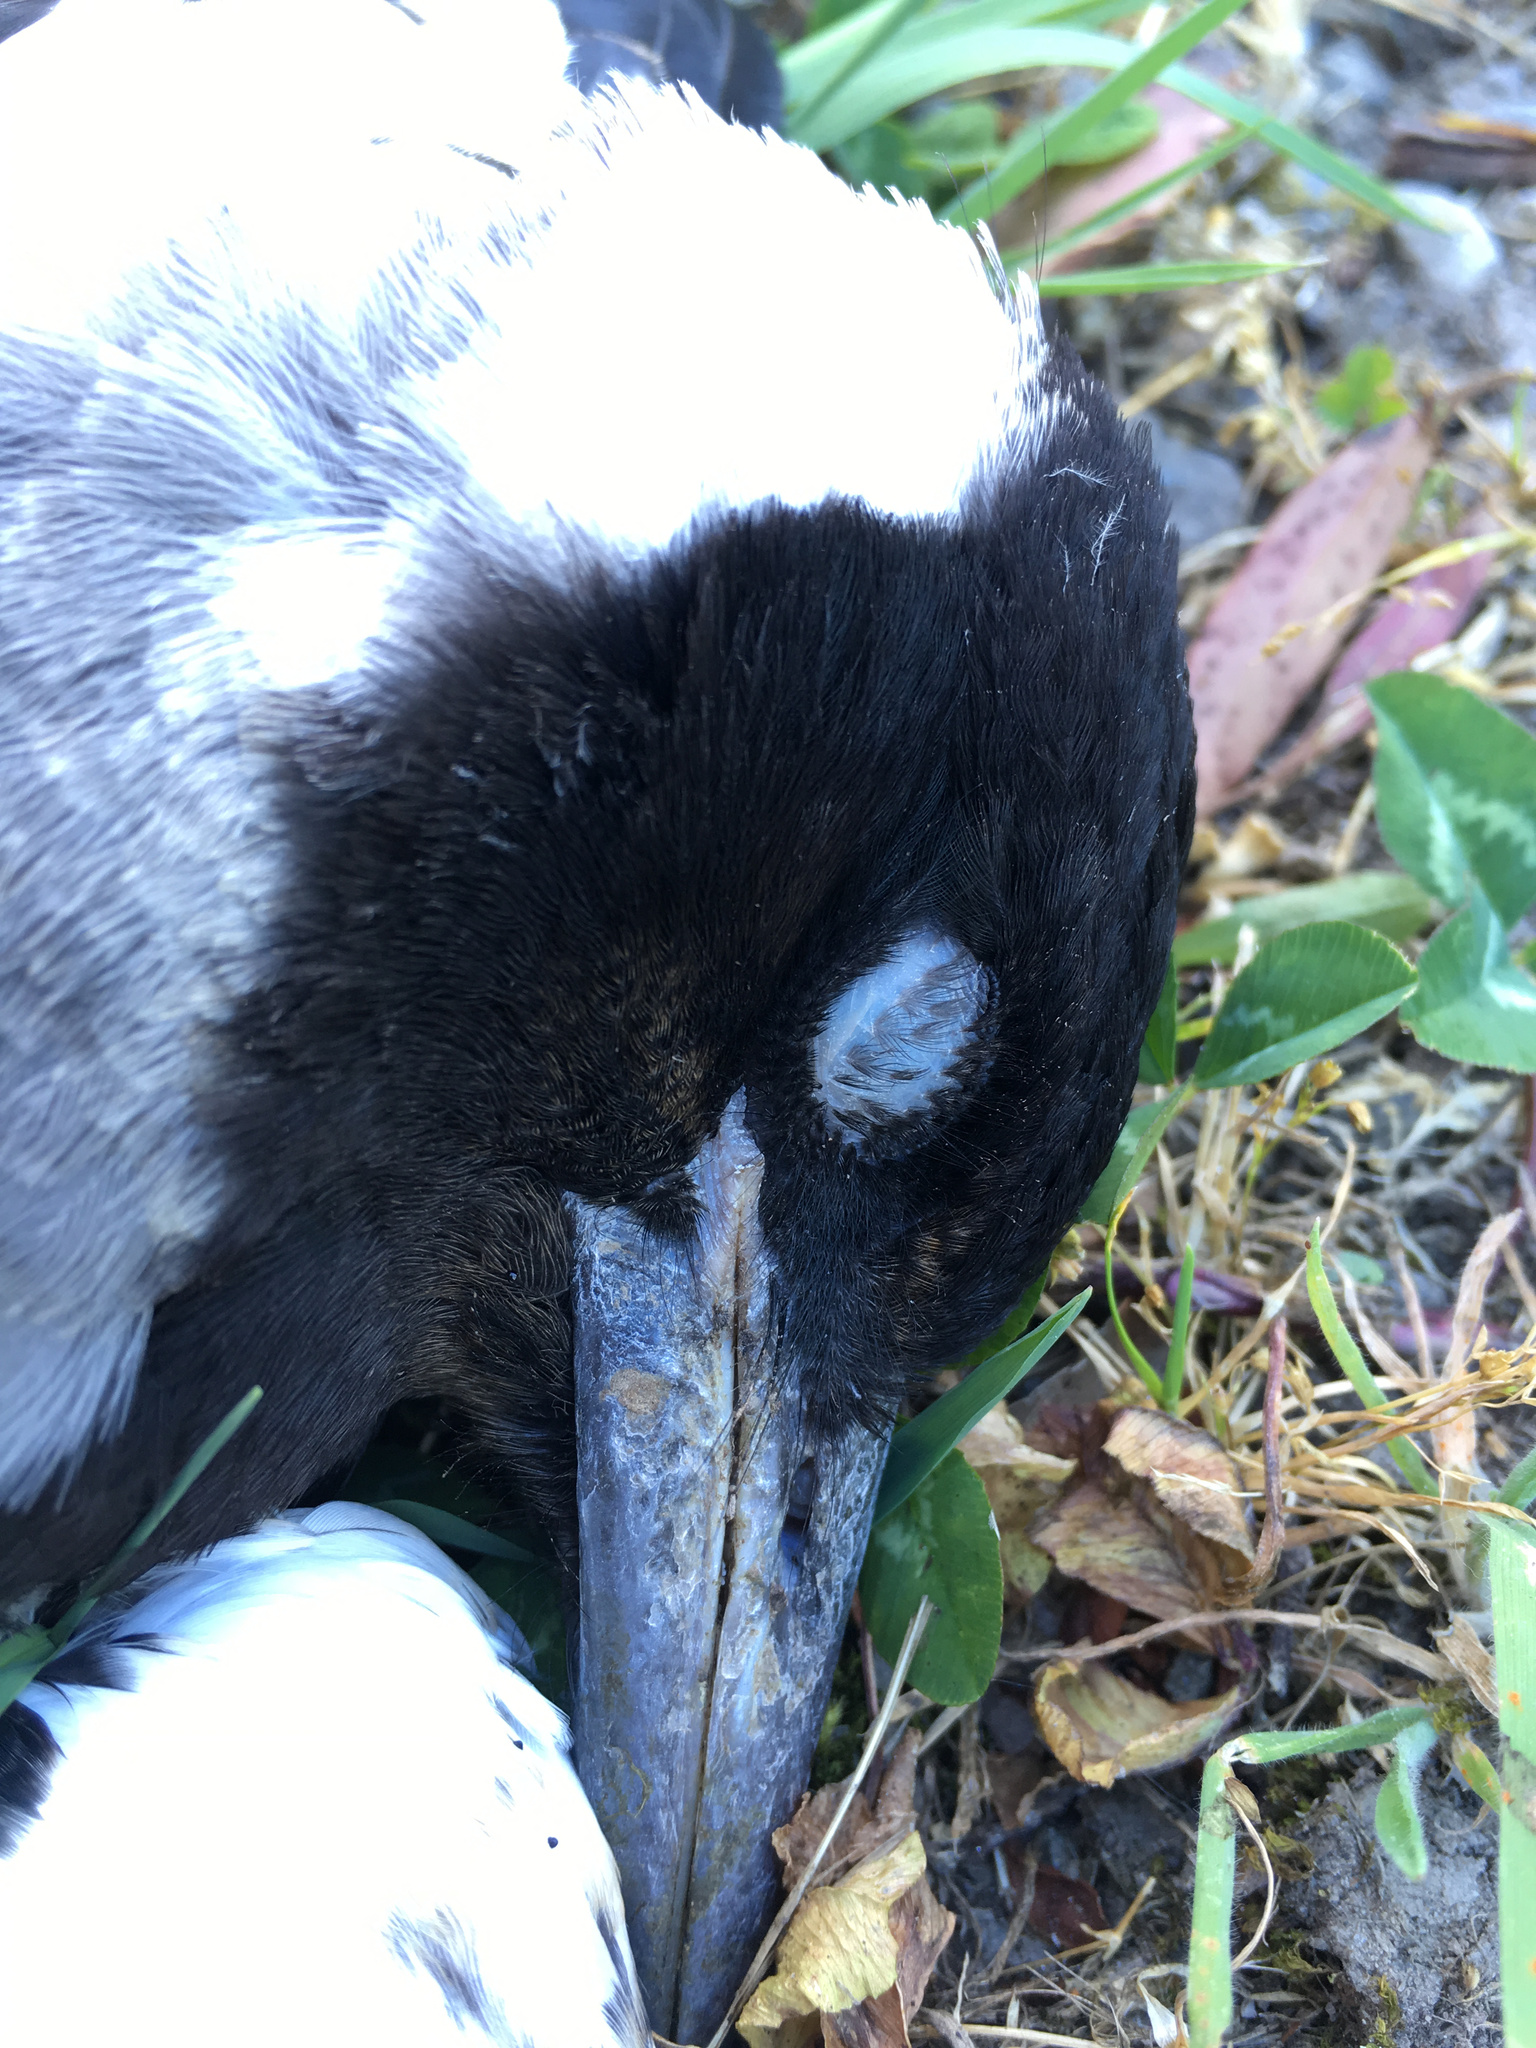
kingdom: Animalia
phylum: Chordata
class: Aves
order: Passeriformes
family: Cracticidae
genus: Gymnorhina
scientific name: Gymnorhina tibicen
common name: Australian magpie
